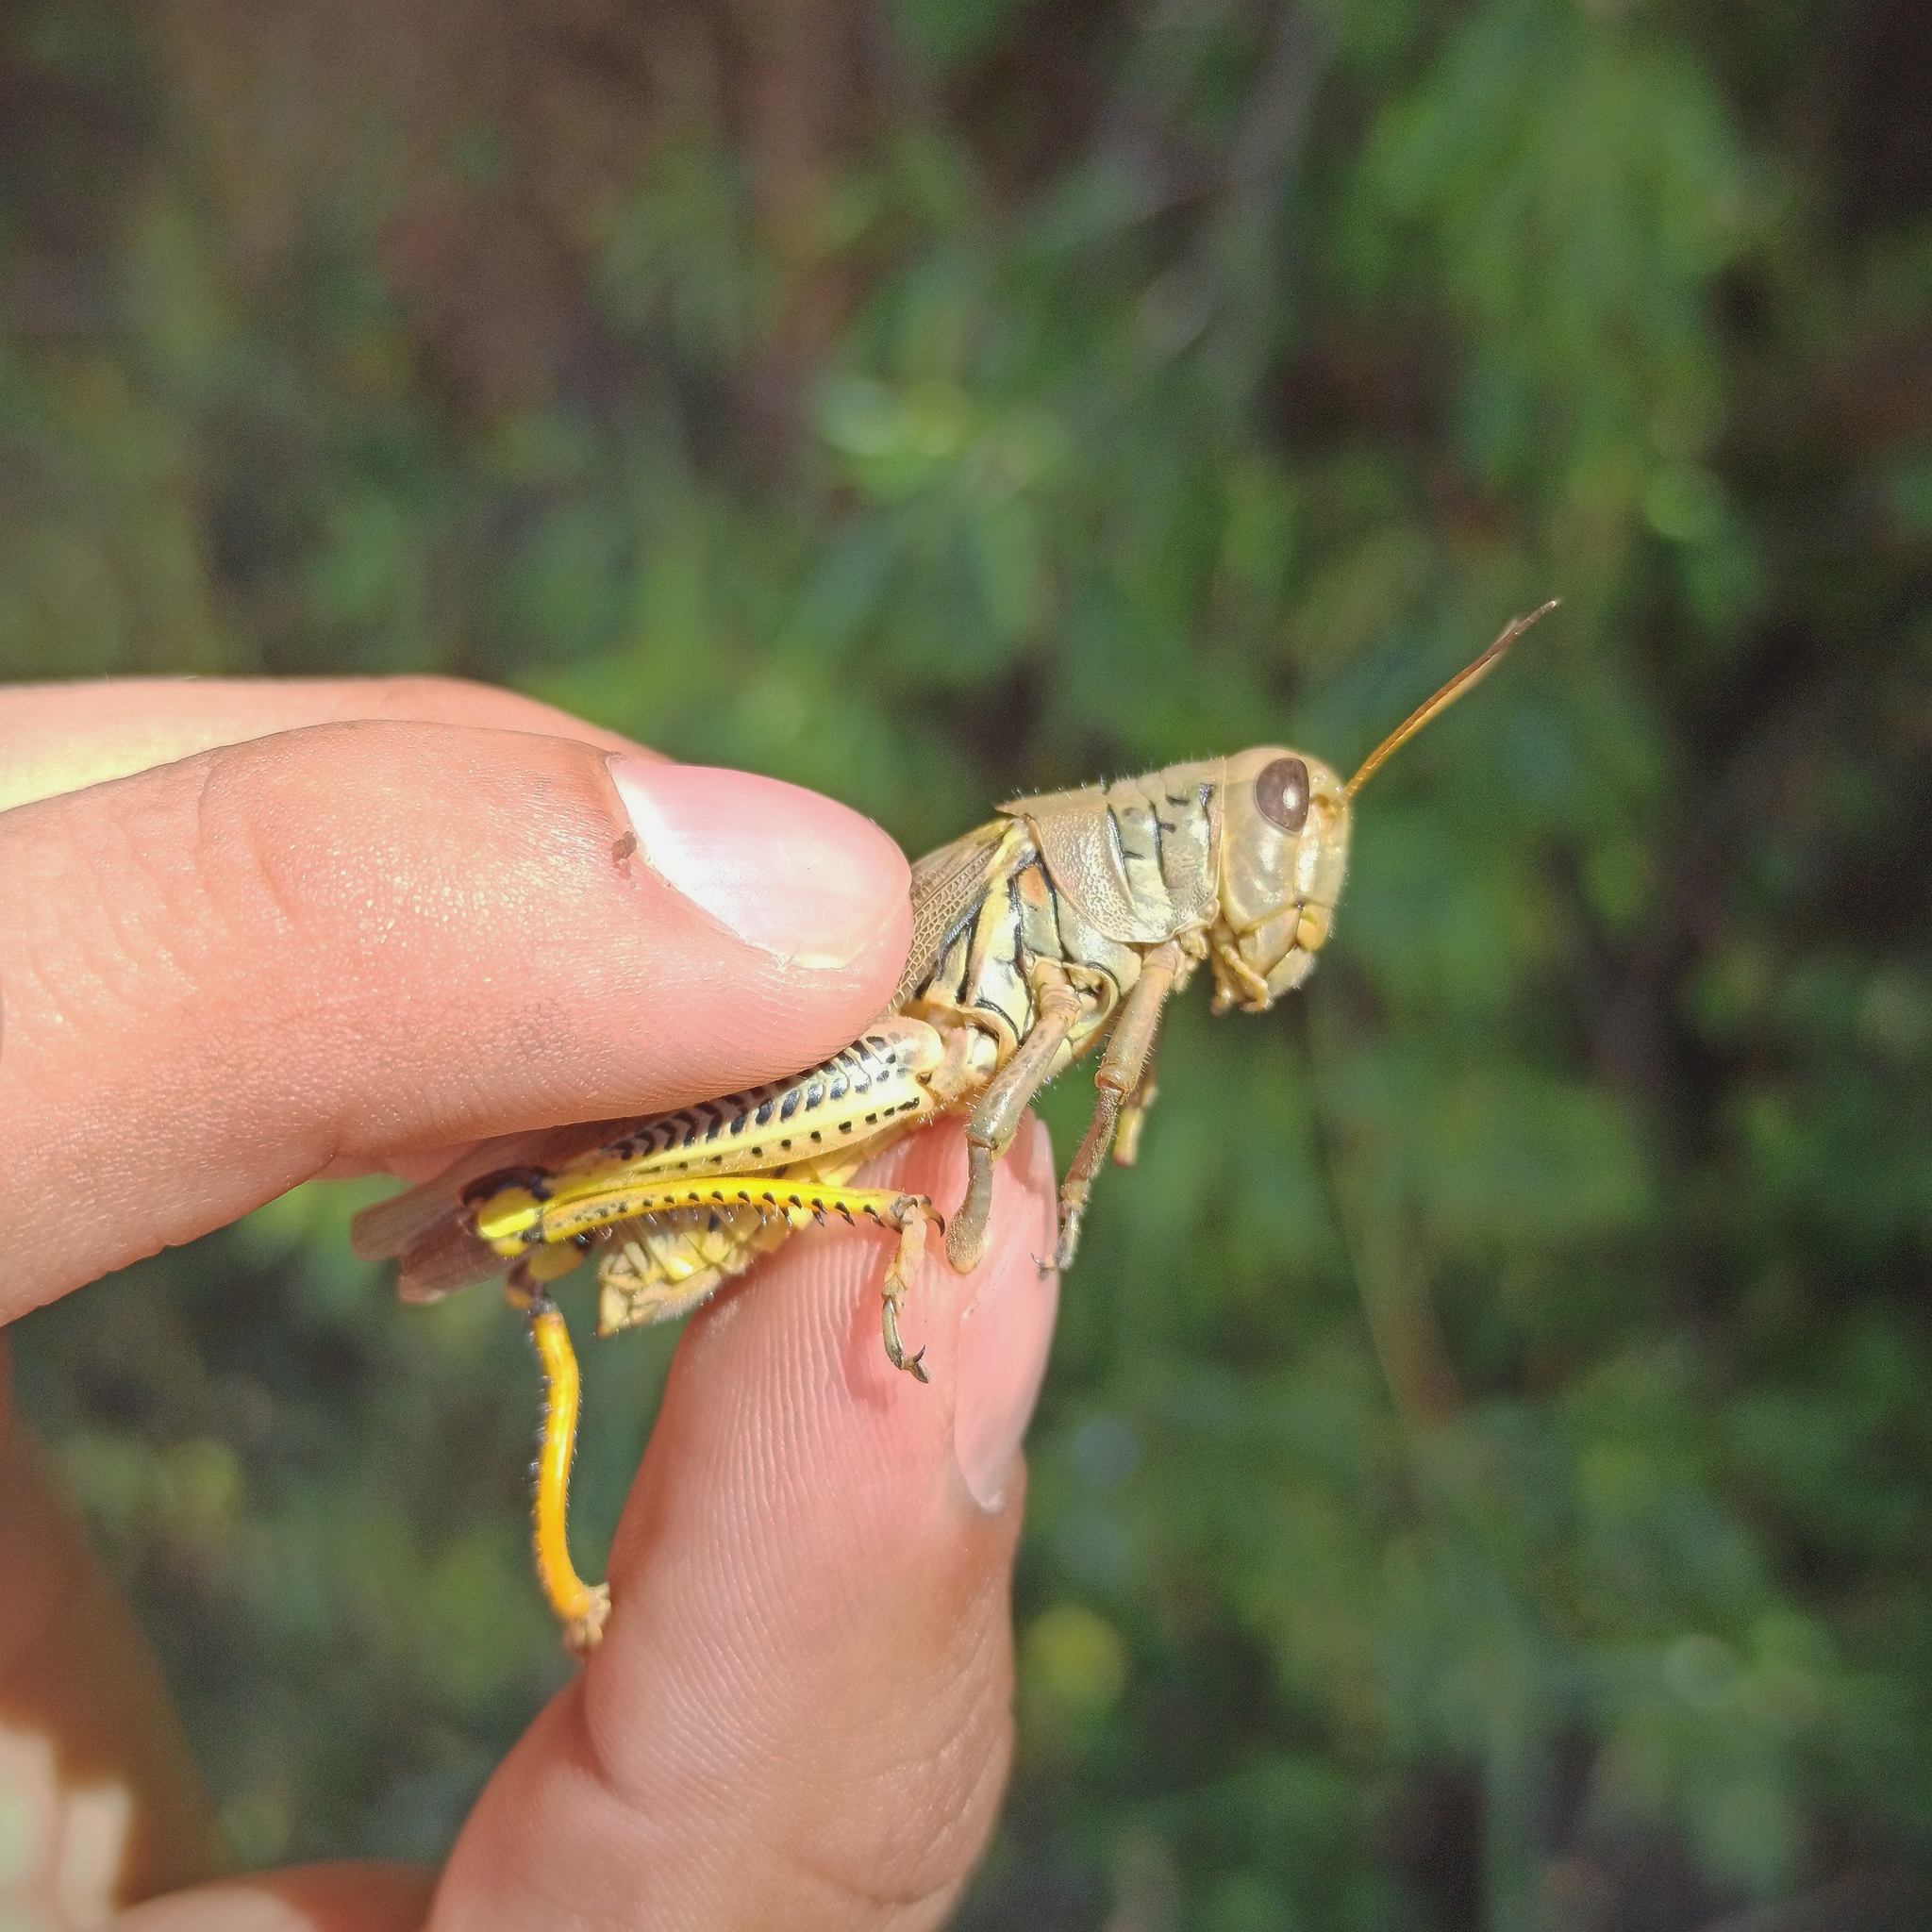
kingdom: Animalia
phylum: Arthropoda
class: Insecta
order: Orthoptera
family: Acrididae
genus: Melanoplus
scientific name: Melanoplus differentialis
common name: Differential grasshopper
